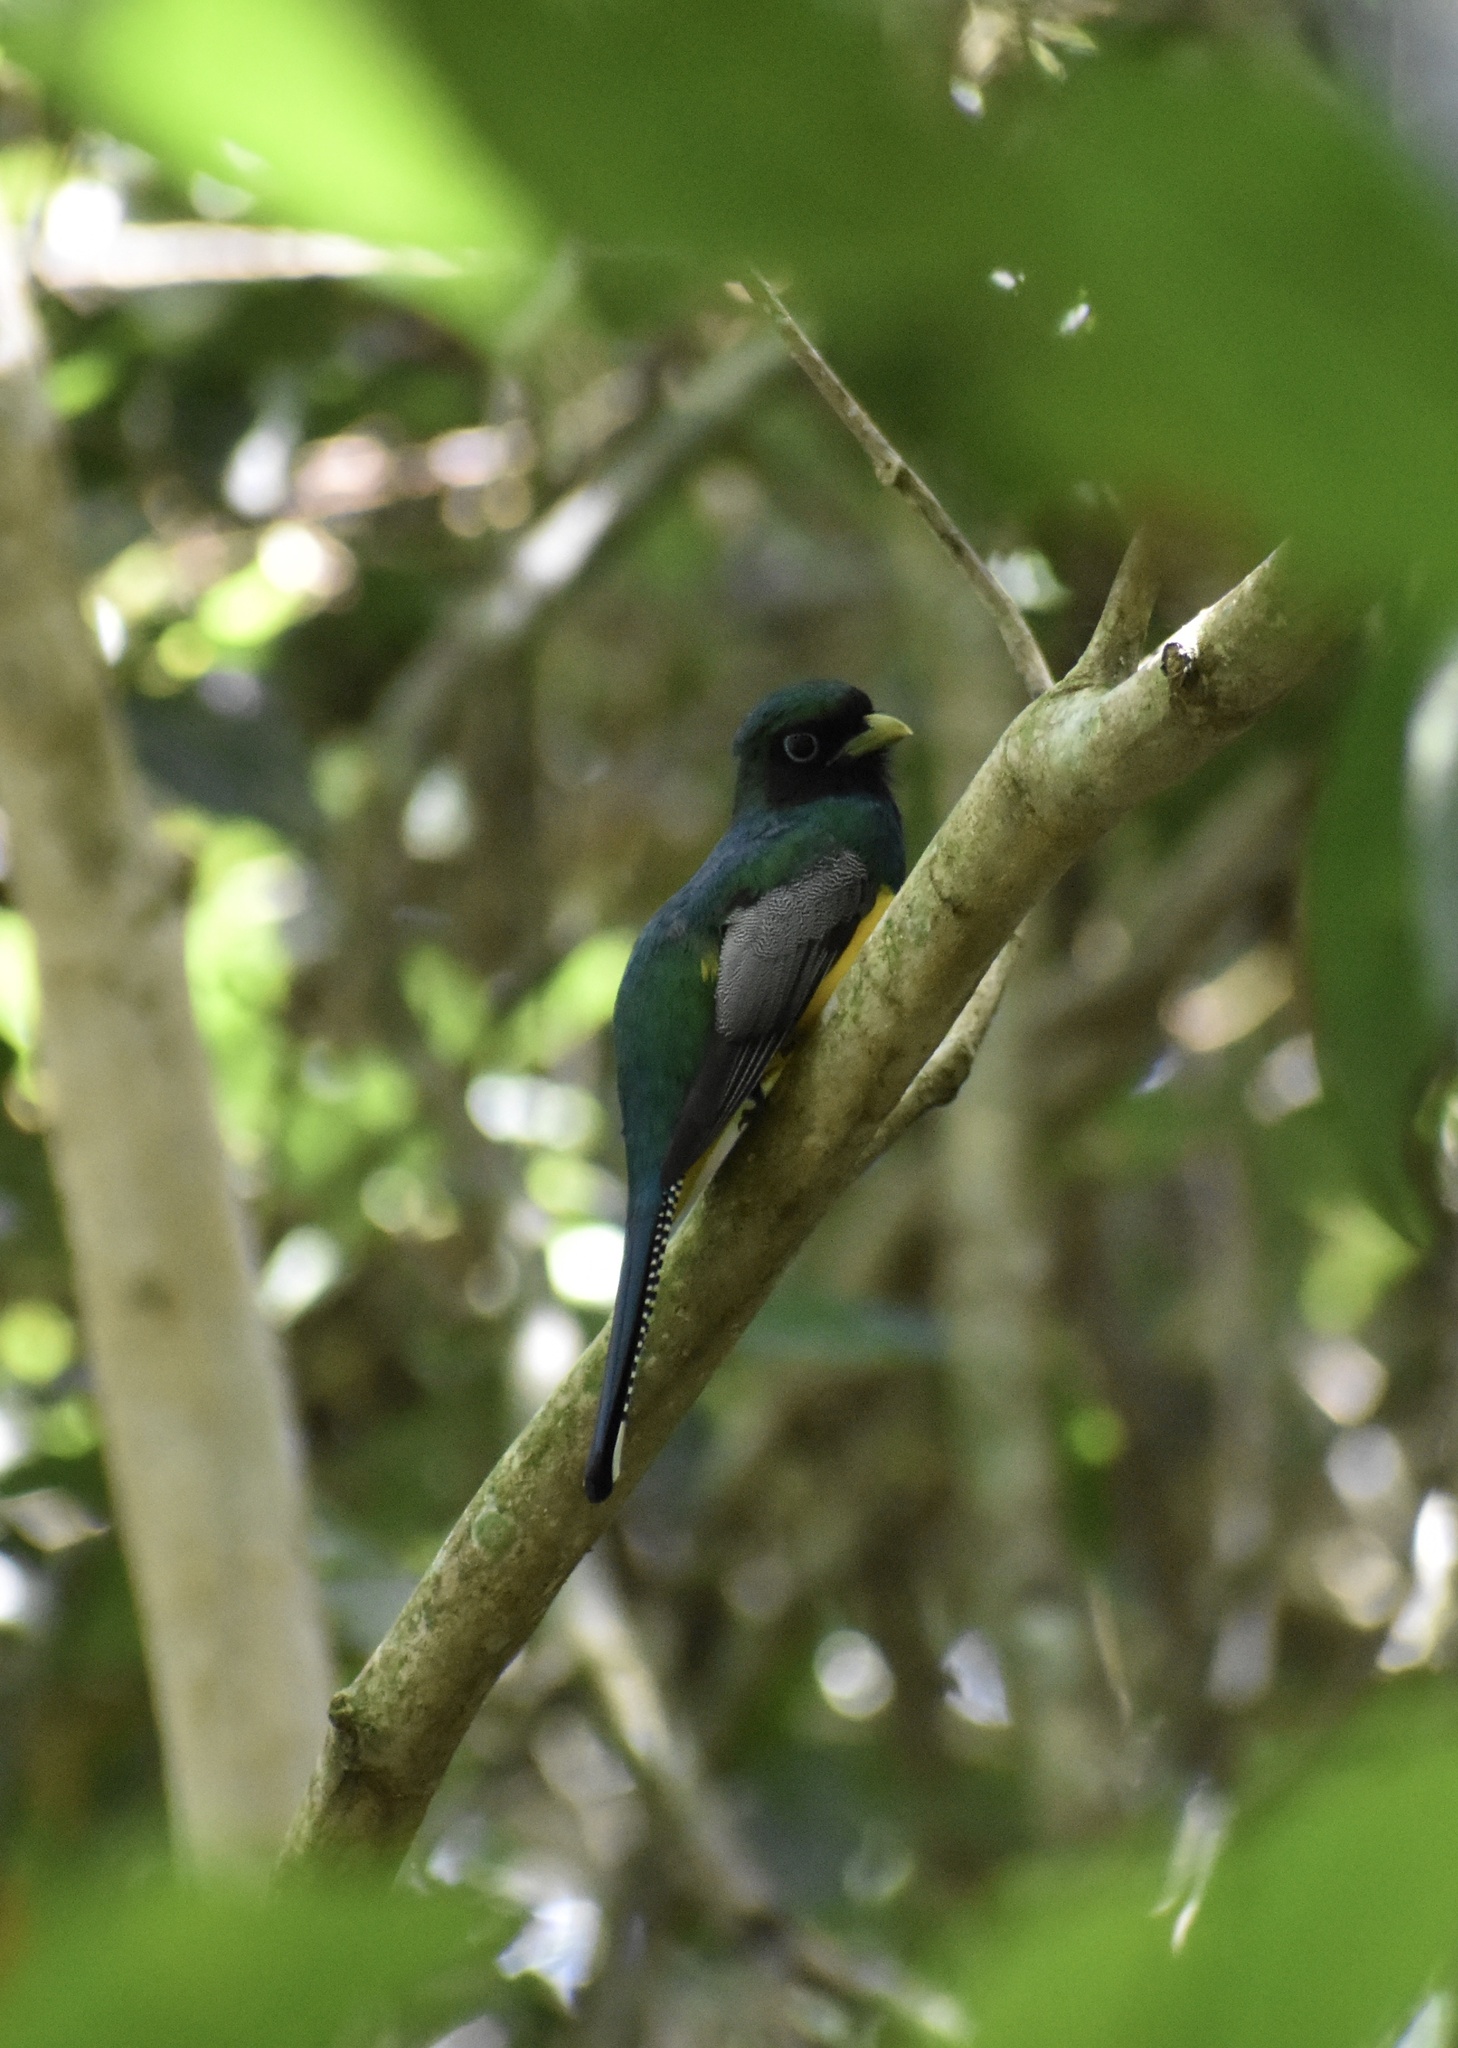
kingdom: Animalia
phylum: Chordata
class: Aves
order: Trogoniformes
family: Trogonidae
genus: Trogon
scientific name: Trogon rufus
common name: Black-throated trogon
